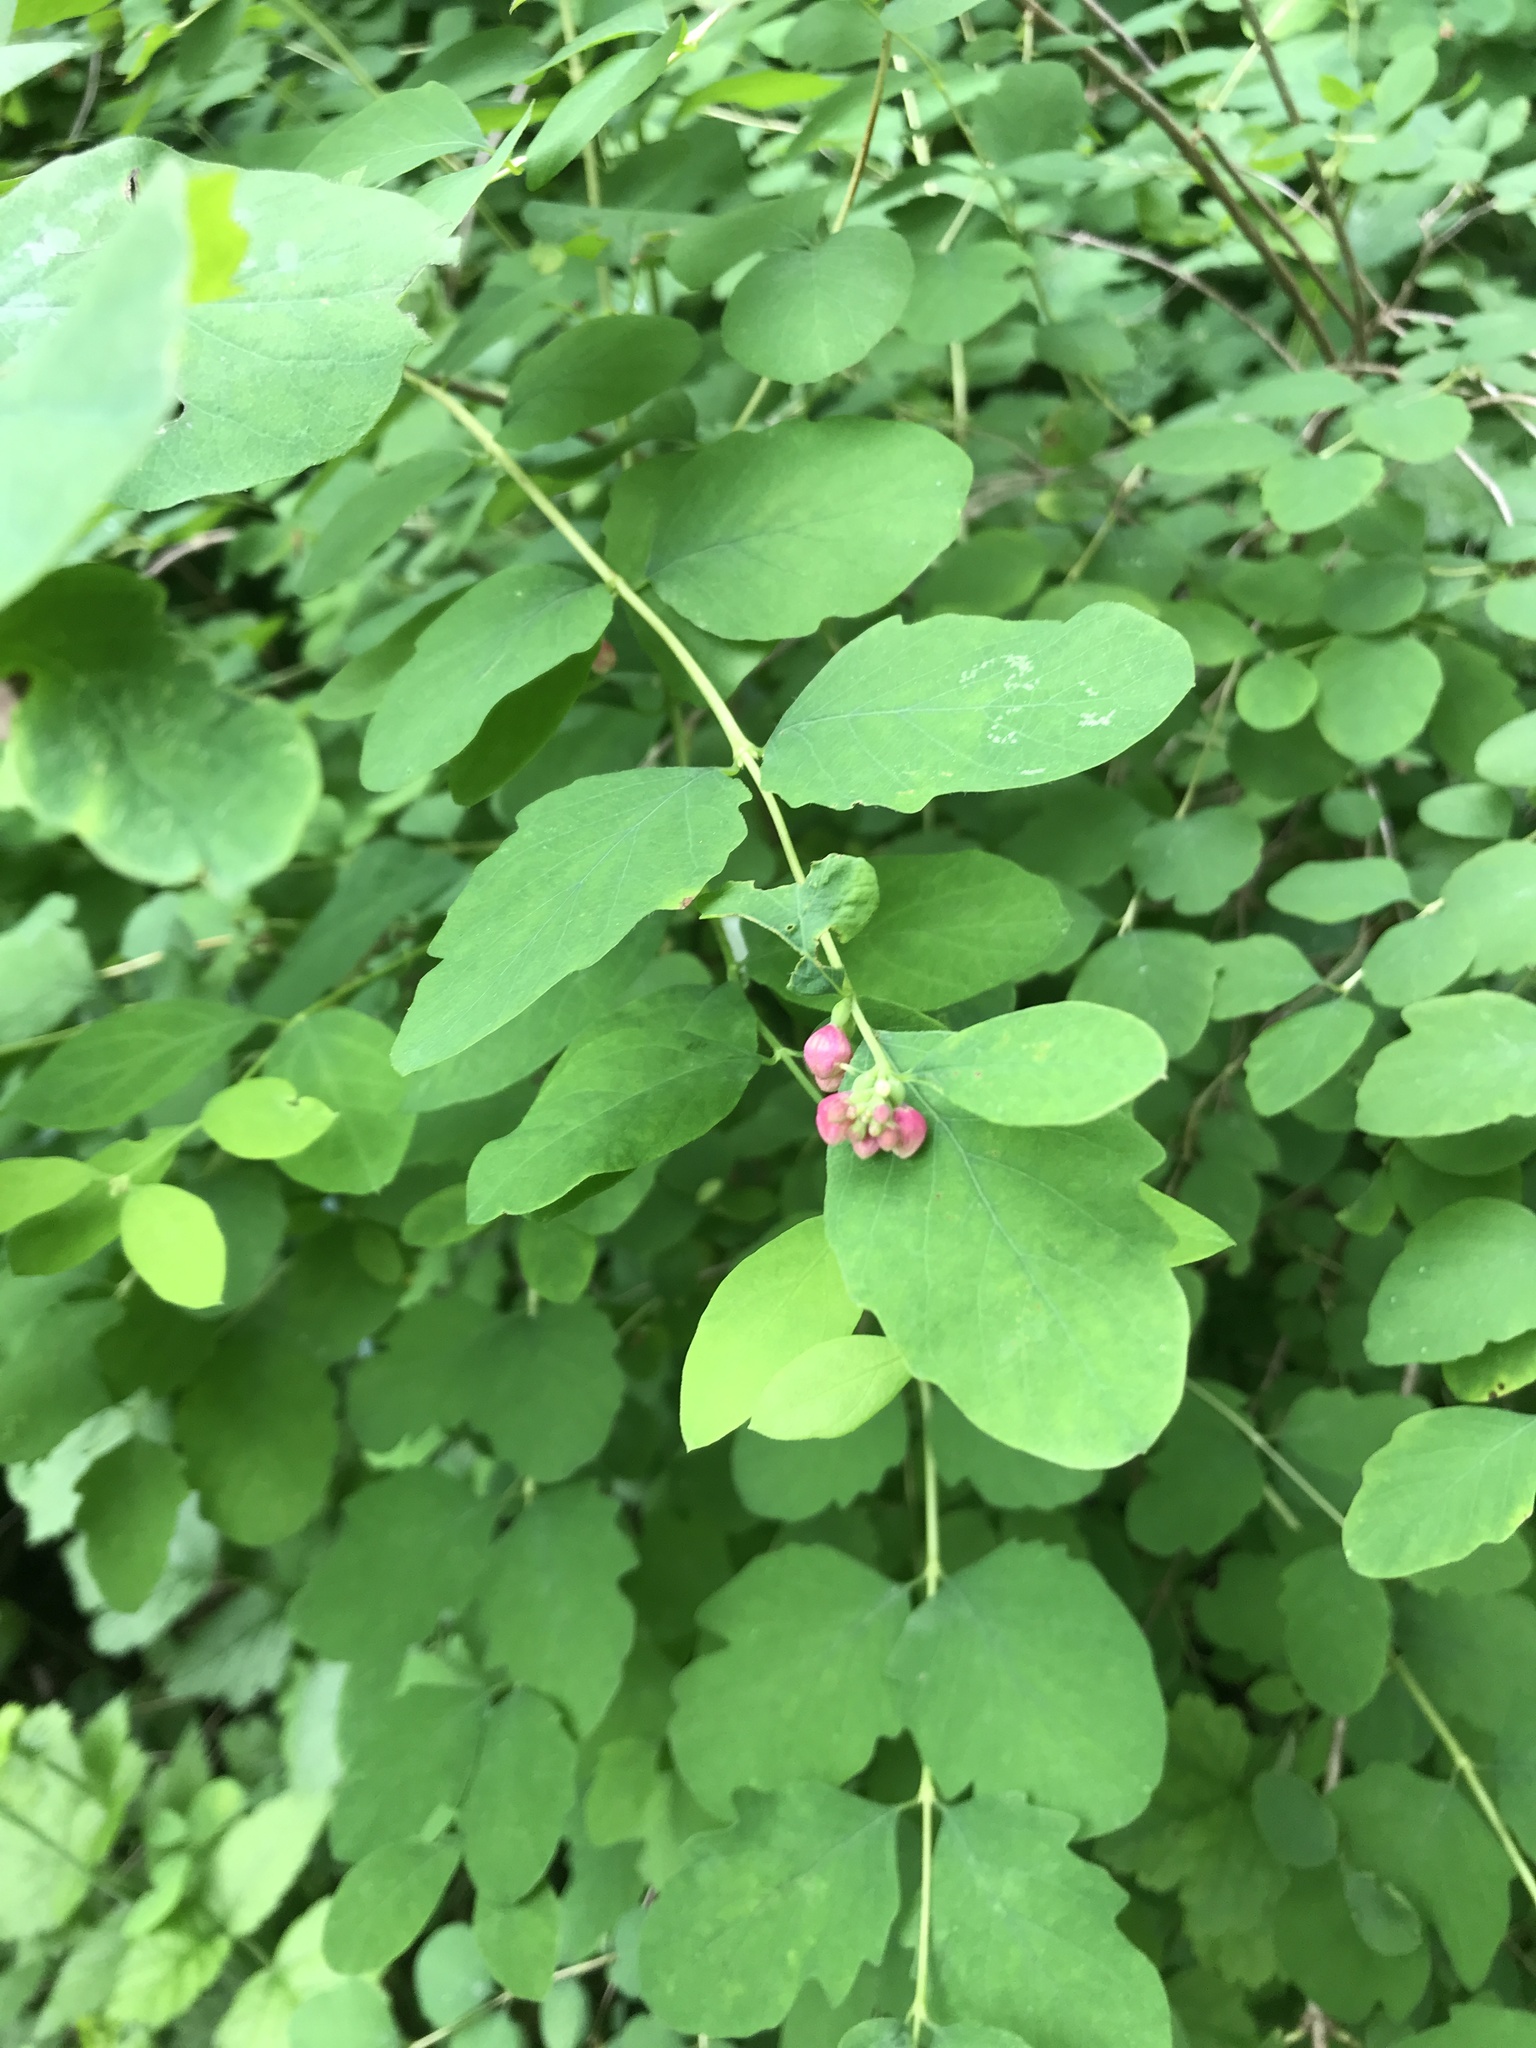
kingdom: Plantae
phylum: Tracheophyta
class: Magnoliopsida
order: Dipsacales
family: Caprifoliaceae
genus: Symphoricarpos
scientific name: Symphoricarpos albus
